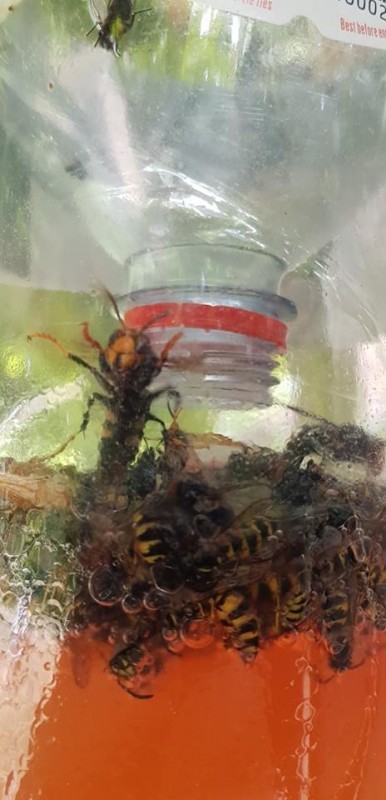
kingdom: Animalia
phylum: Arthropoda
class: Insecta
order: Hymenoptera
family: Vespidae
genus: Vespa
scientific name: Vespa velutina
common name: Asian hornet
